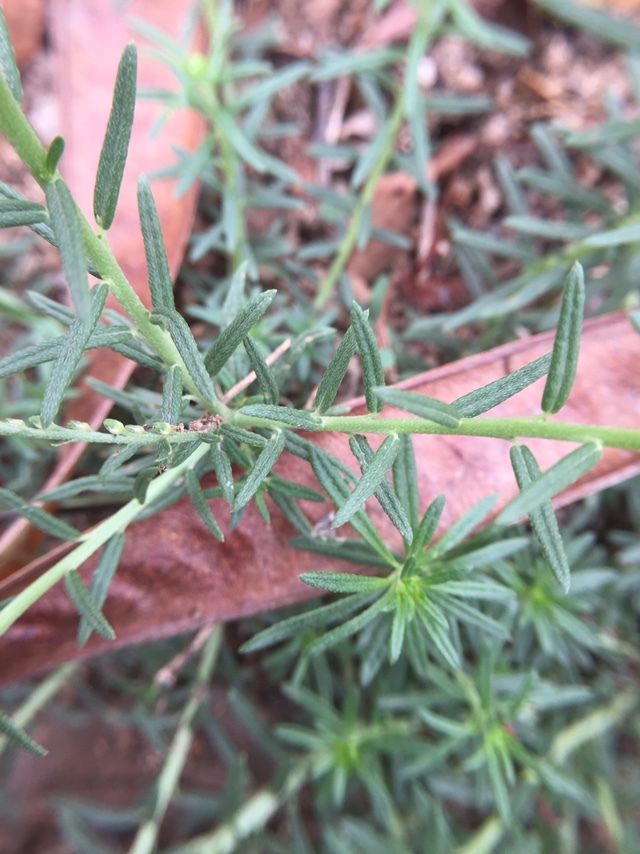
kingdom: Plantae
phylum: Tracheophyta
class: Magnoliopsida
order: Boraginales
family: Heliotropiaceae
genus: Euploca
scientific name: Euploca strigosa
